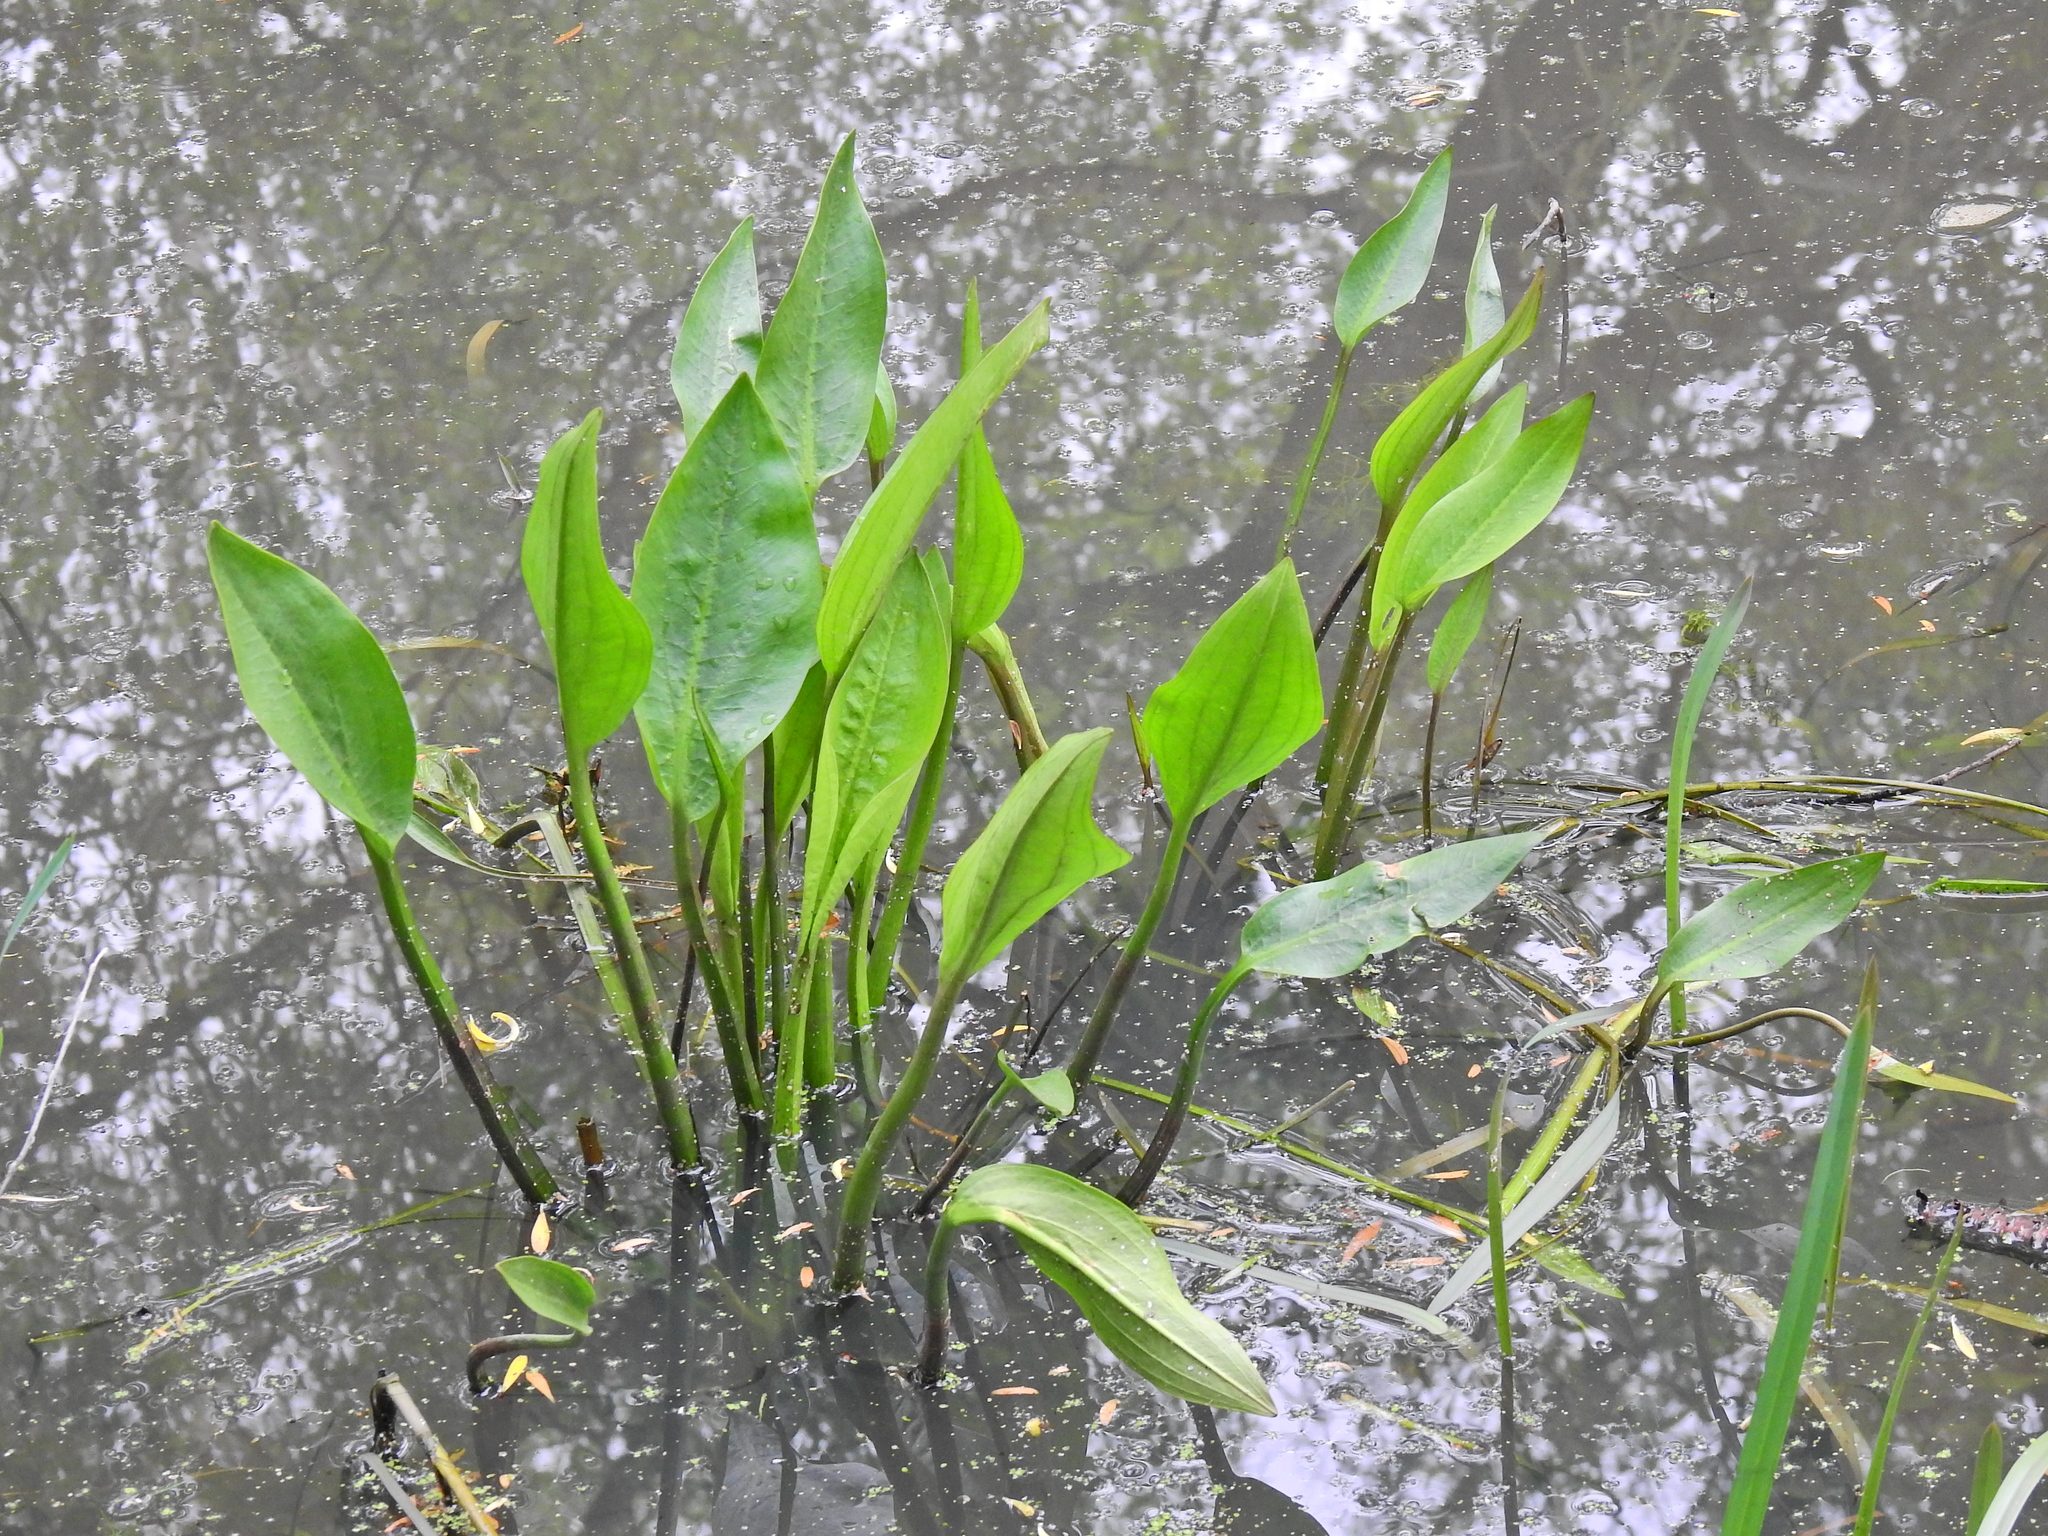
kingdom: Plantae
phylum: Tracheophyta
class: Liliopsida
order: Alismatales
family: Alismataceae
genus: Alisma
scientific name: Alisma plantago-aquatica
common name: Water-plantain
